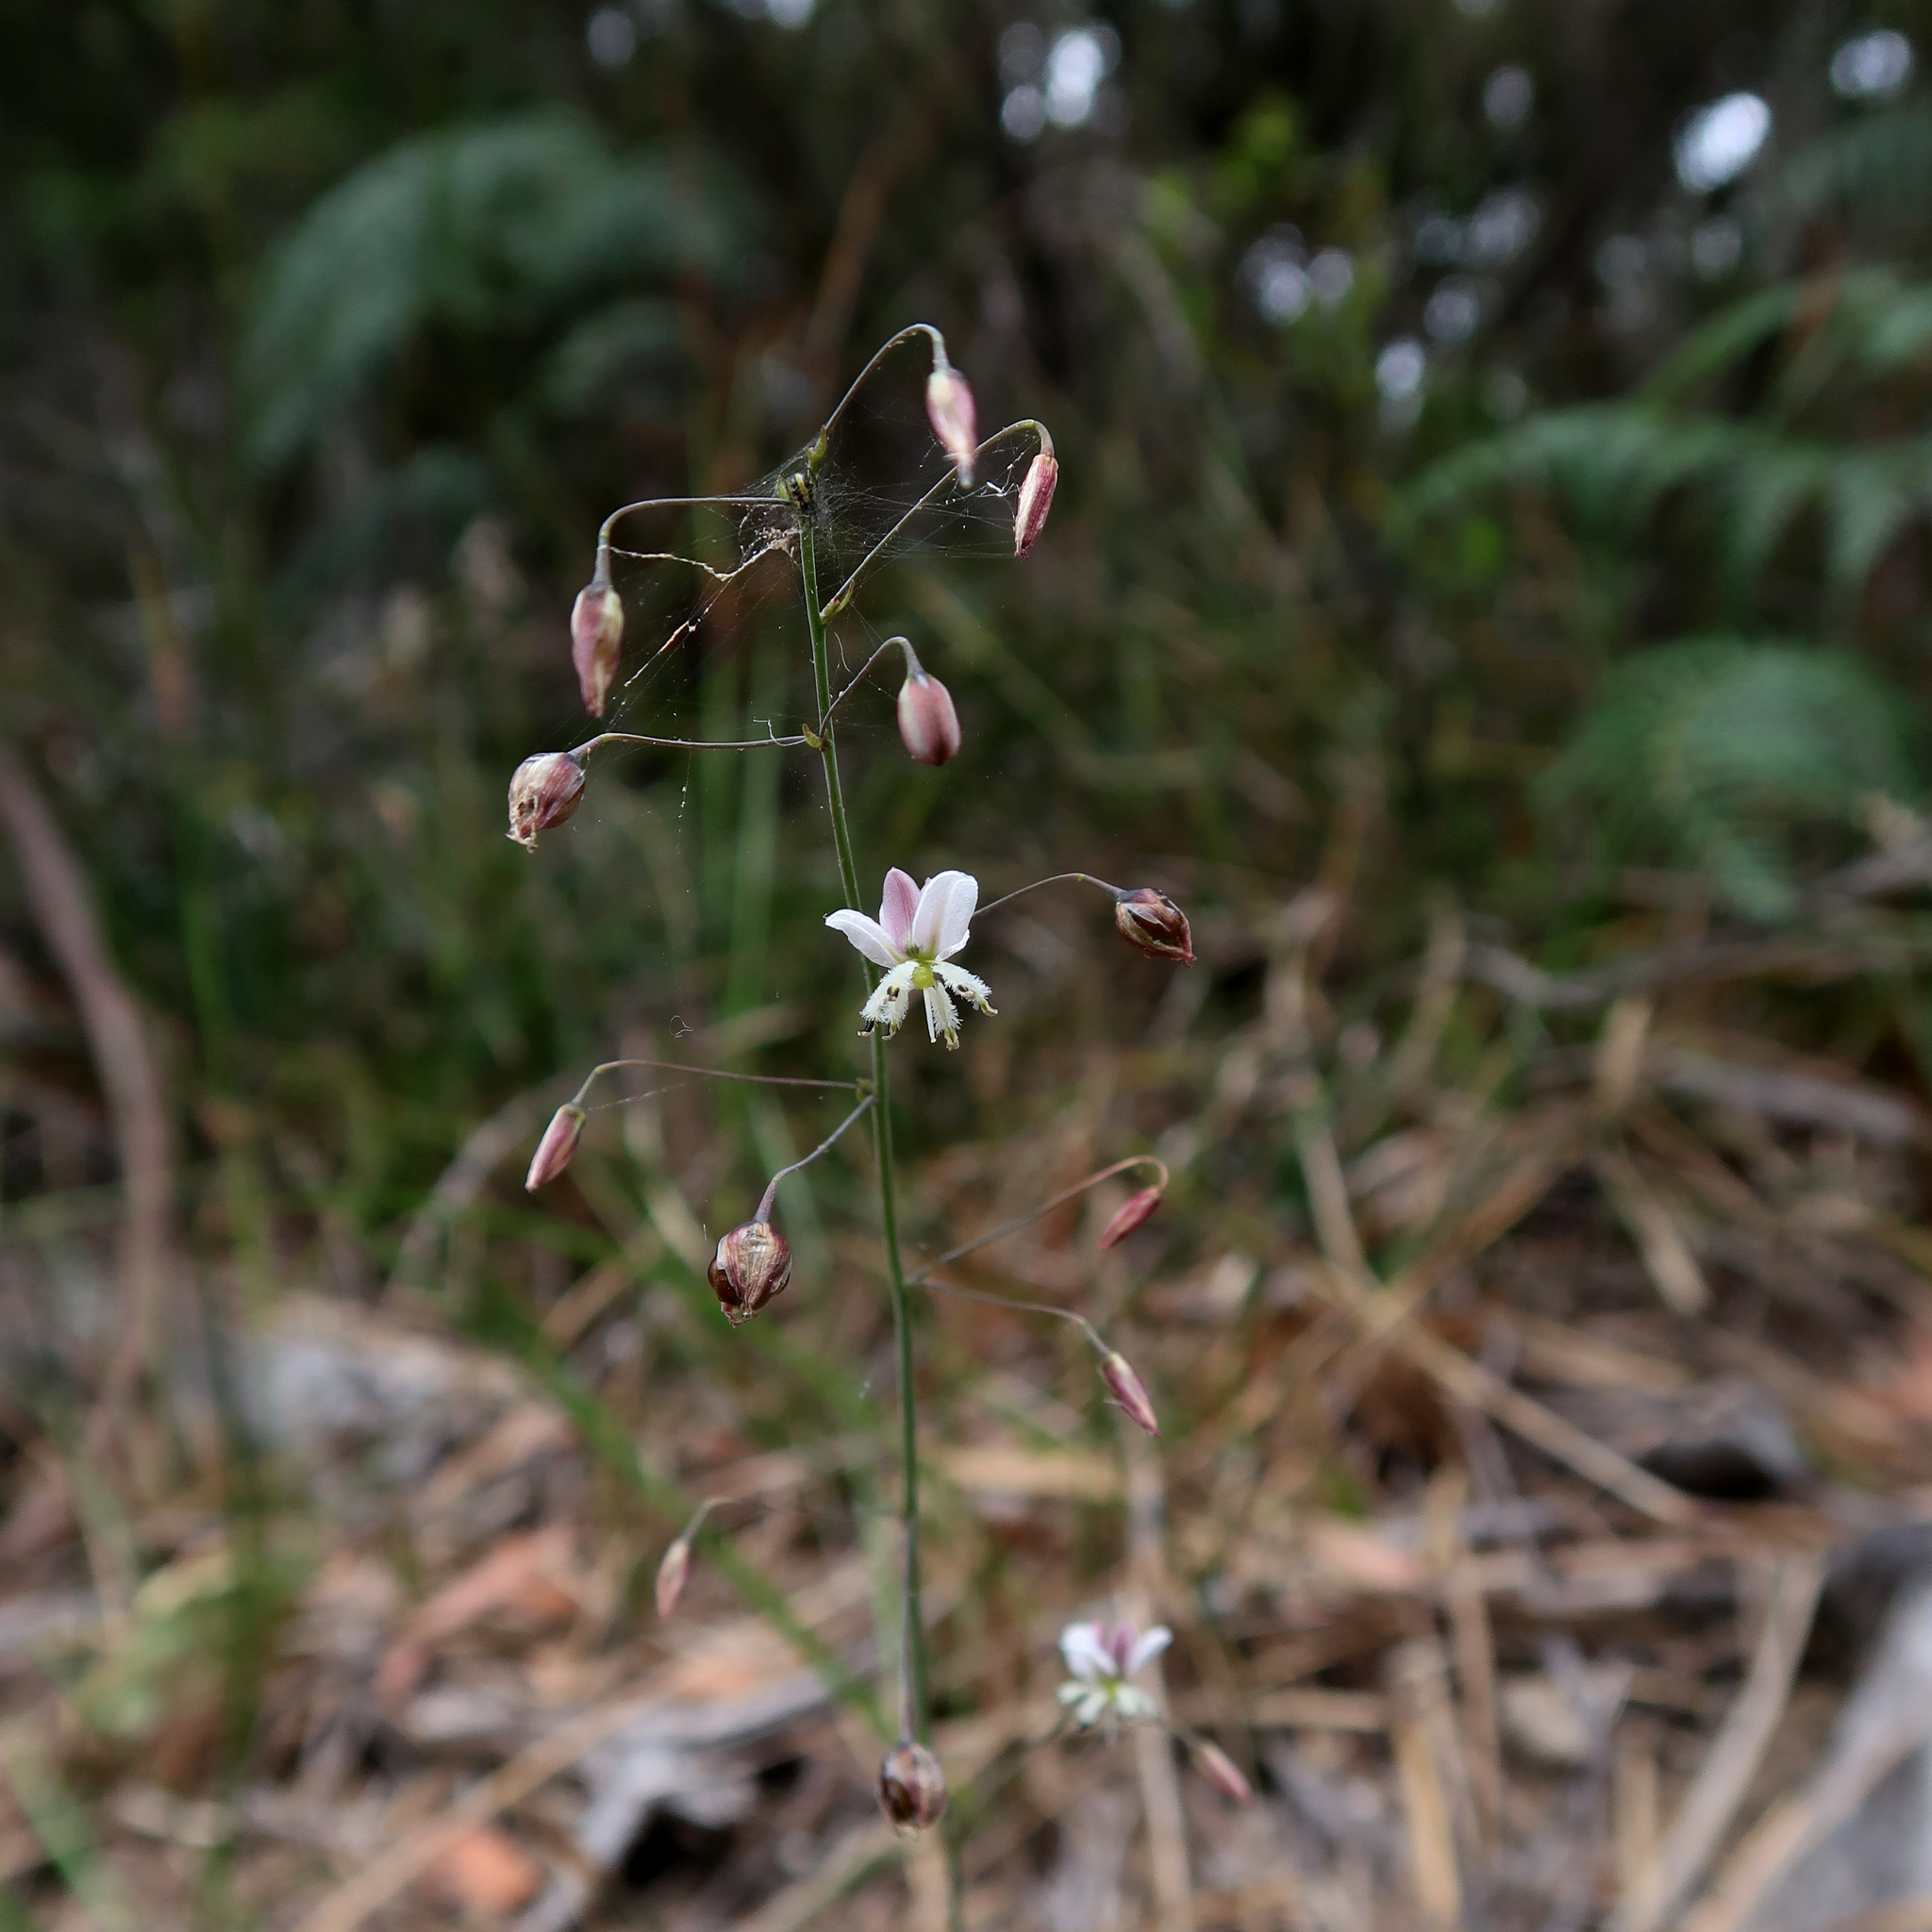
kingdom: Plantae
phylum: Tracheophyta
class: Liliopsida
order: Asparagales
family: Asparagaceae
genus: Arthropodium
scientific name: Arthropodium milleflorum
